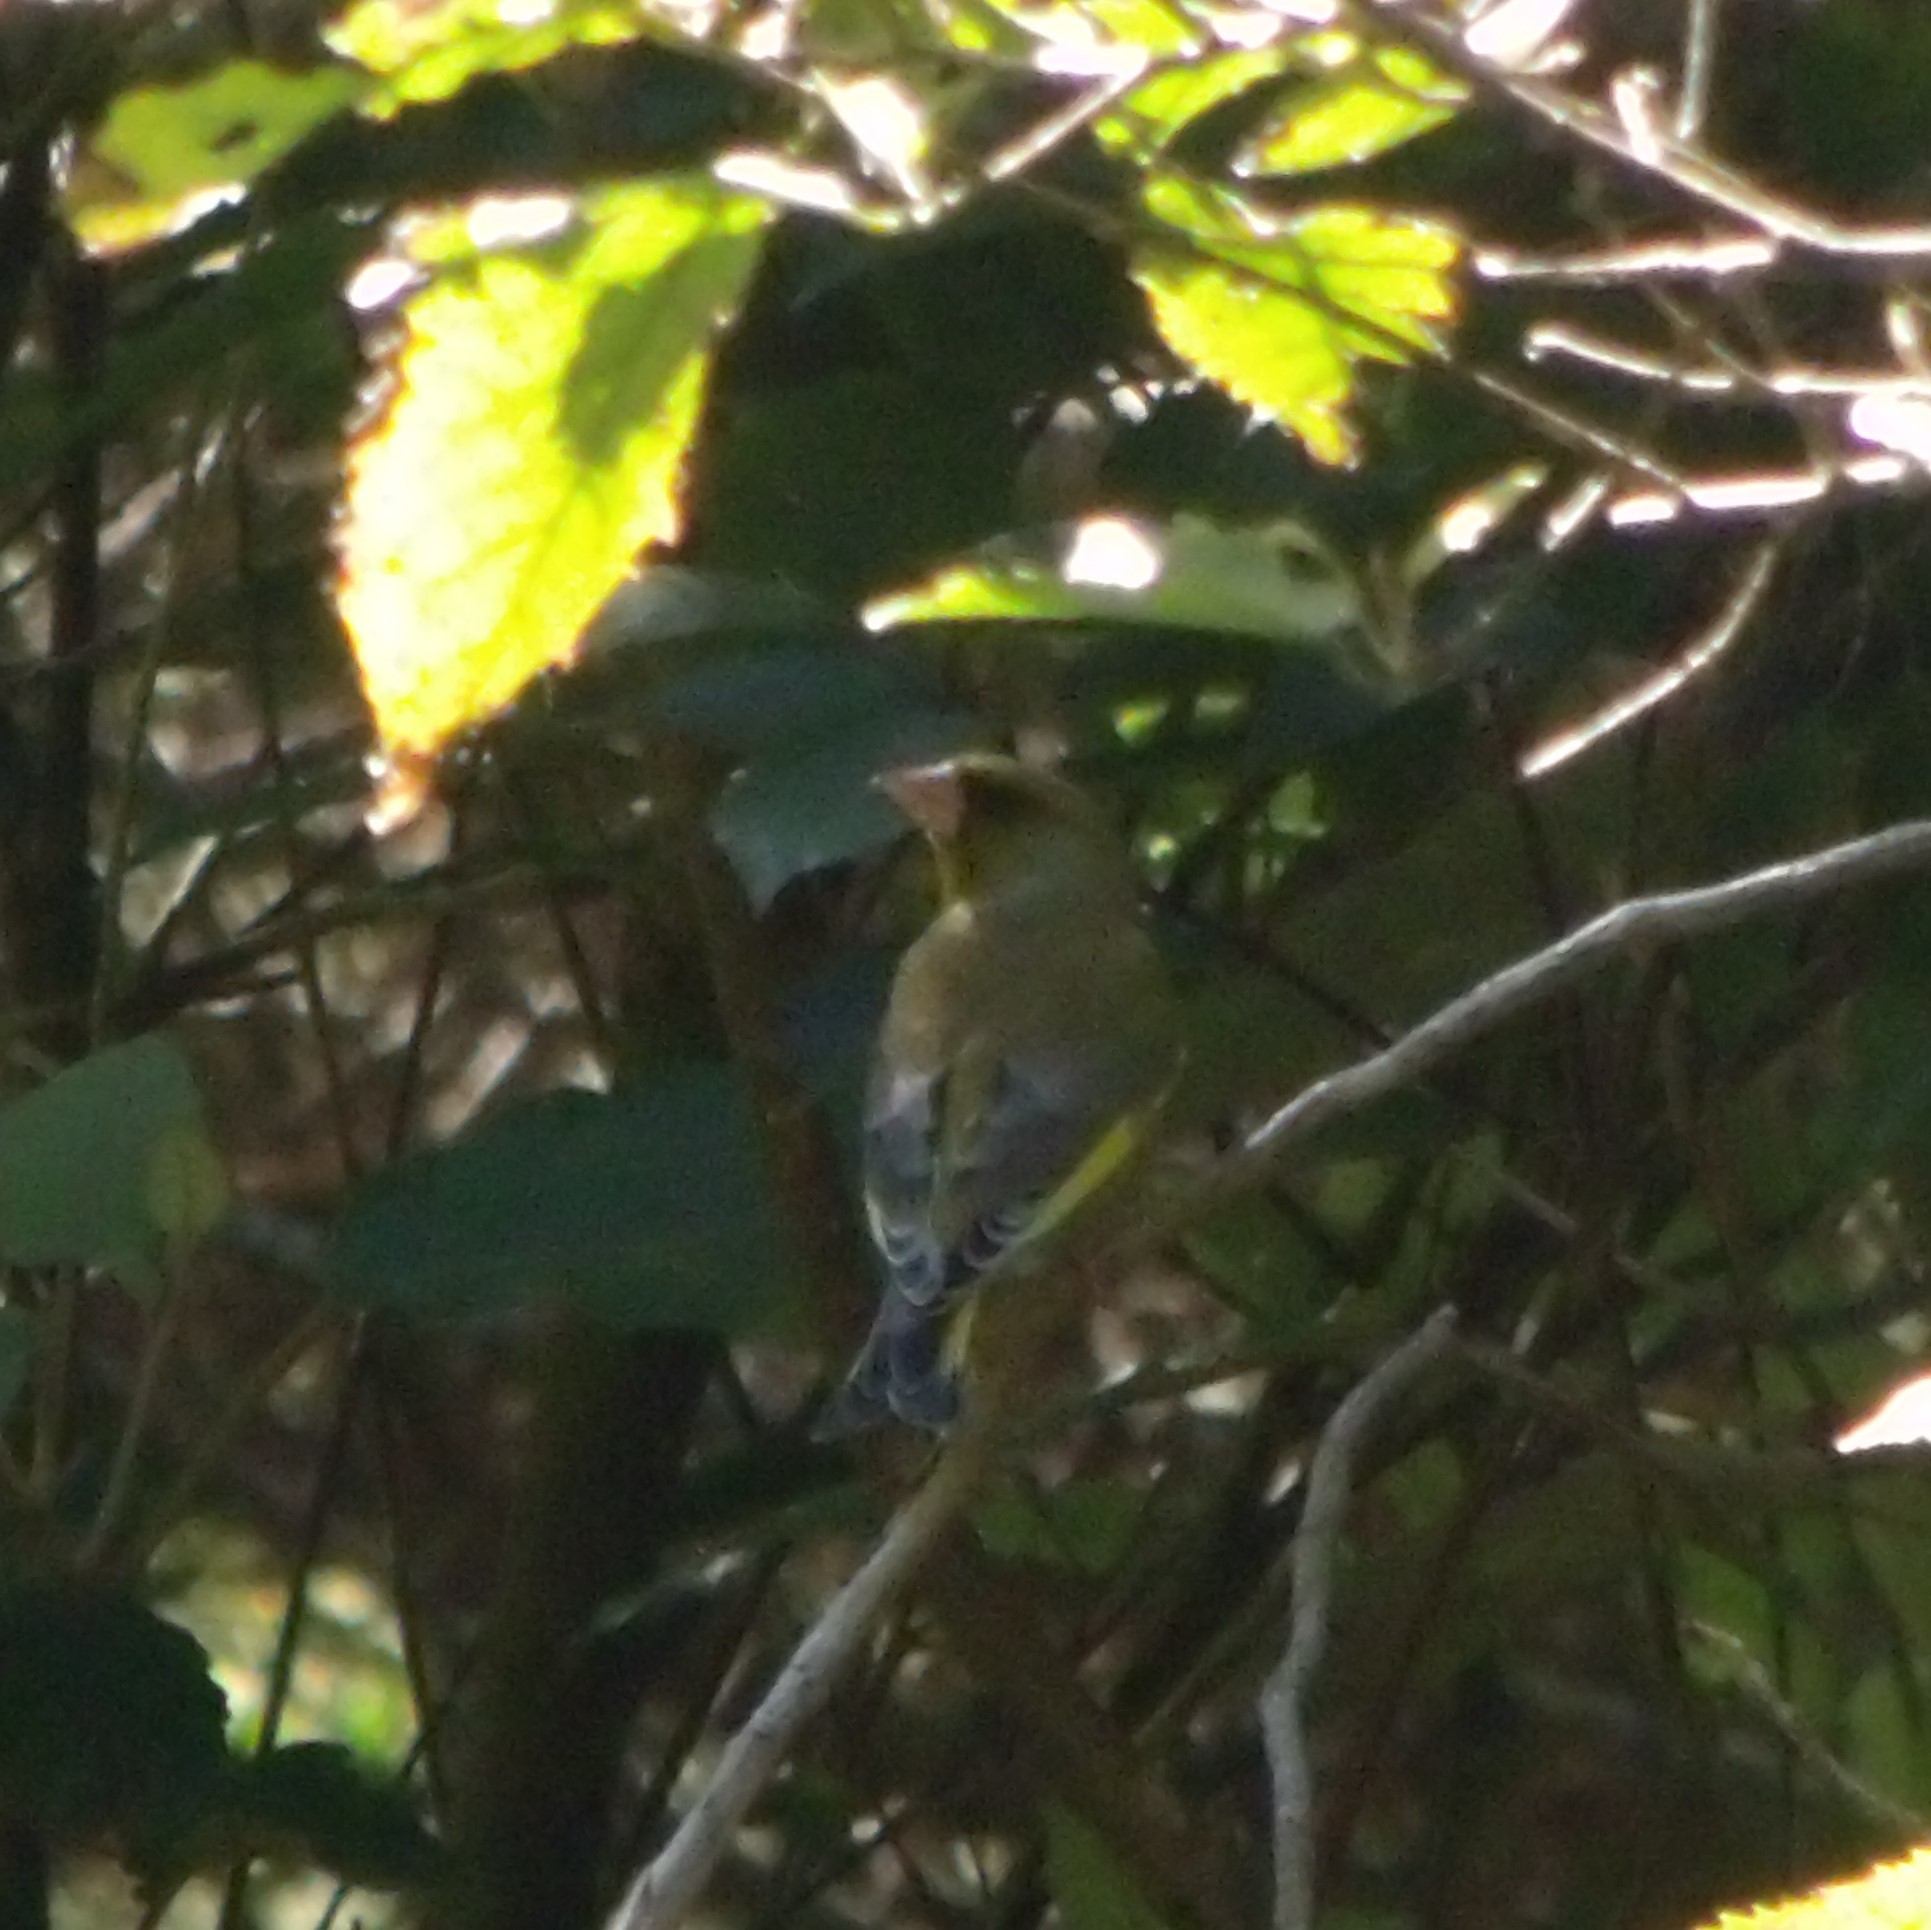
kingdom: Plantae
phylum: Tracheophyta
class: Liliopsida
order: Poales
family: Poaceae
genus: Chloris
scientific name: Chloris chloris
